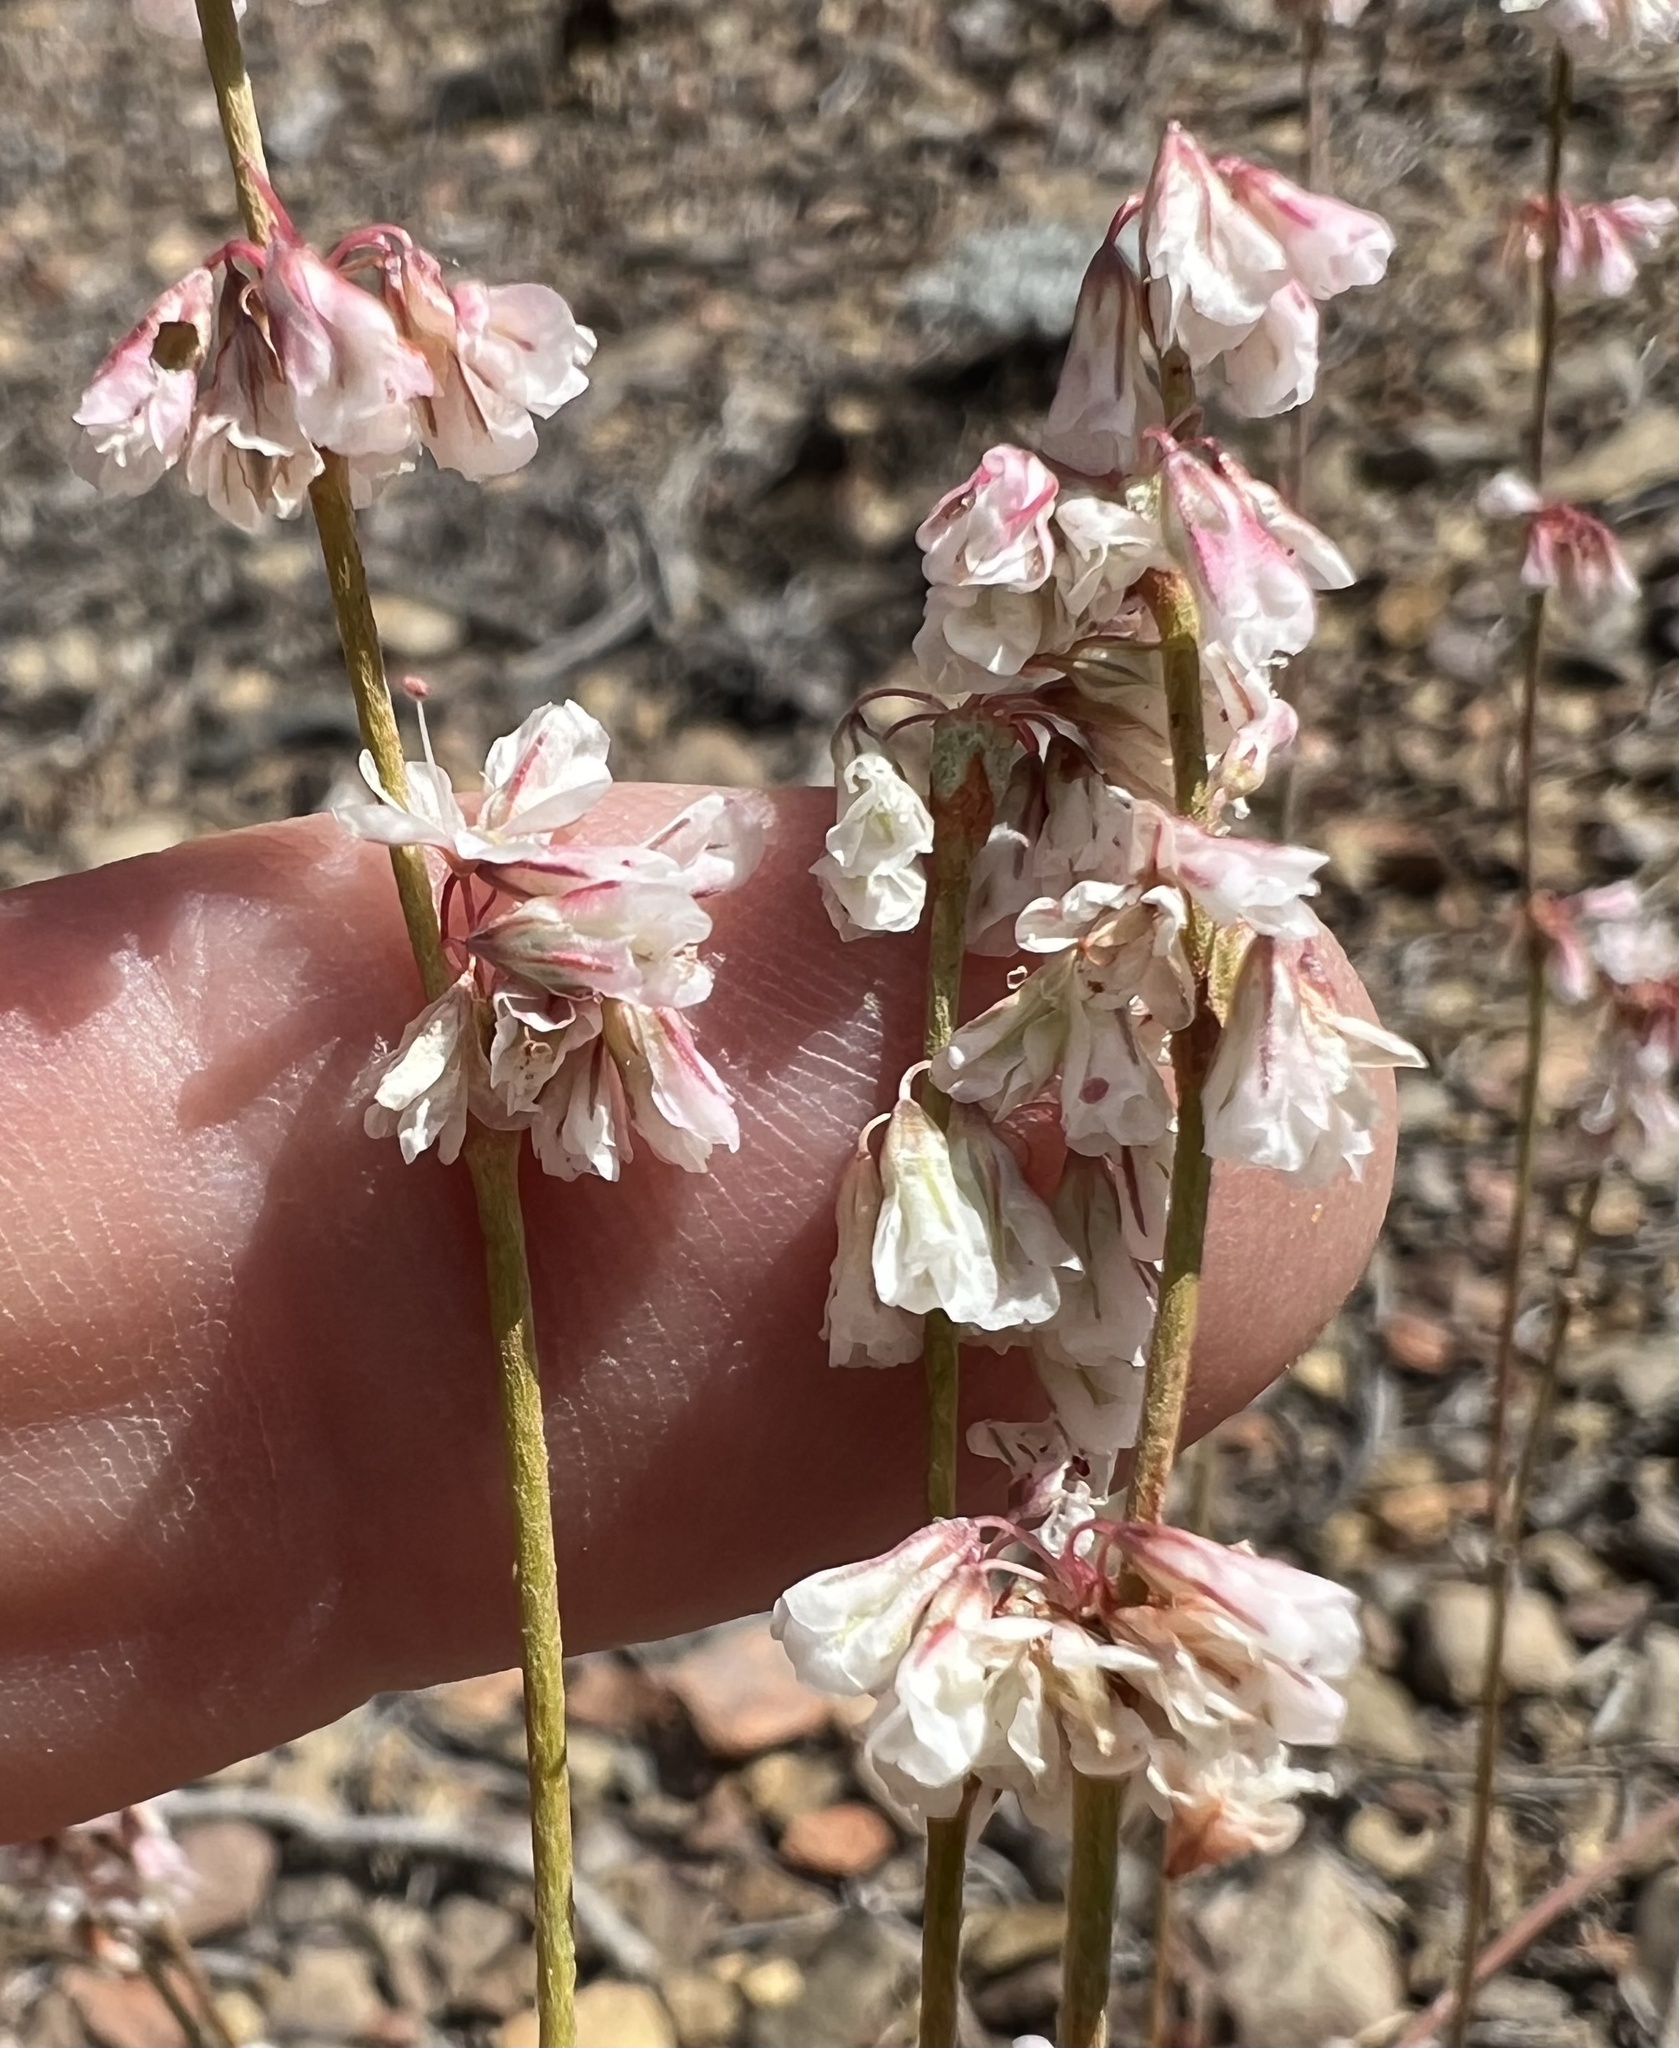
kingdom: Plantae
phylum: Tracheophyta
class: Magnoliopsida
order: Caryophyllales
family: Polygonaceae
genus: Eriogonum
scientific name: Eriogonum wrightii
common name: Bastard-sage
